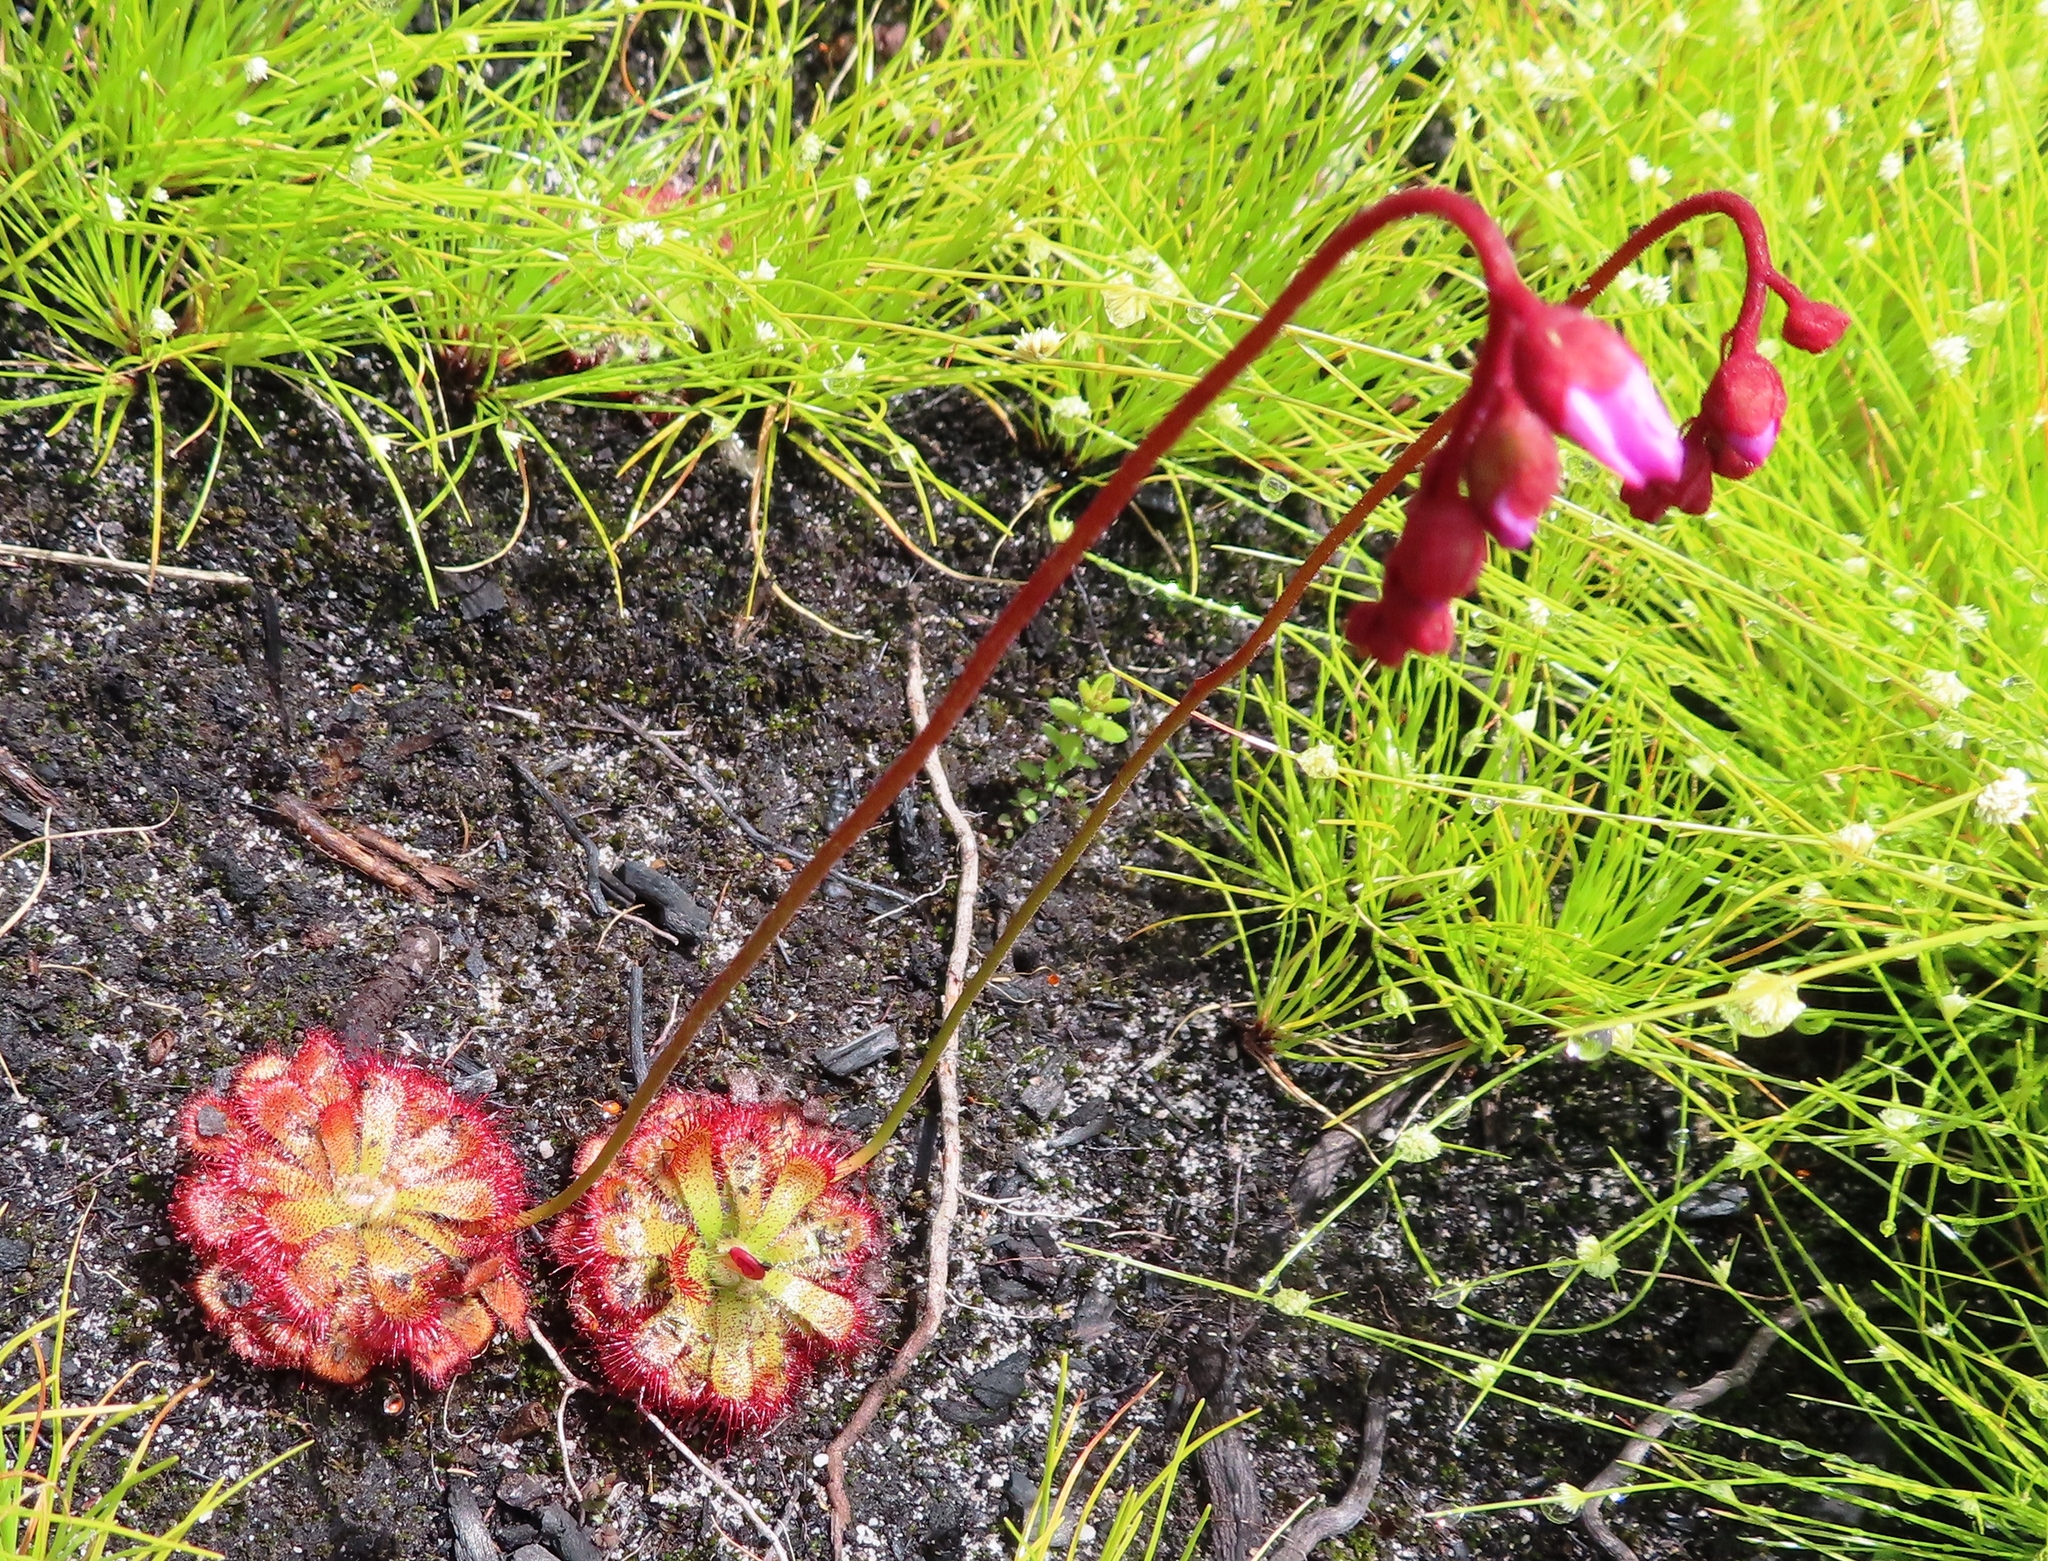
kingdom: Plantae
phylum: Tracheophyta
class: Magnoliopsida
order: Caryophyllales
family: Droseraceae
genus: Drosera
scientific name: Drosera aliciae
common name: Alice sundew
